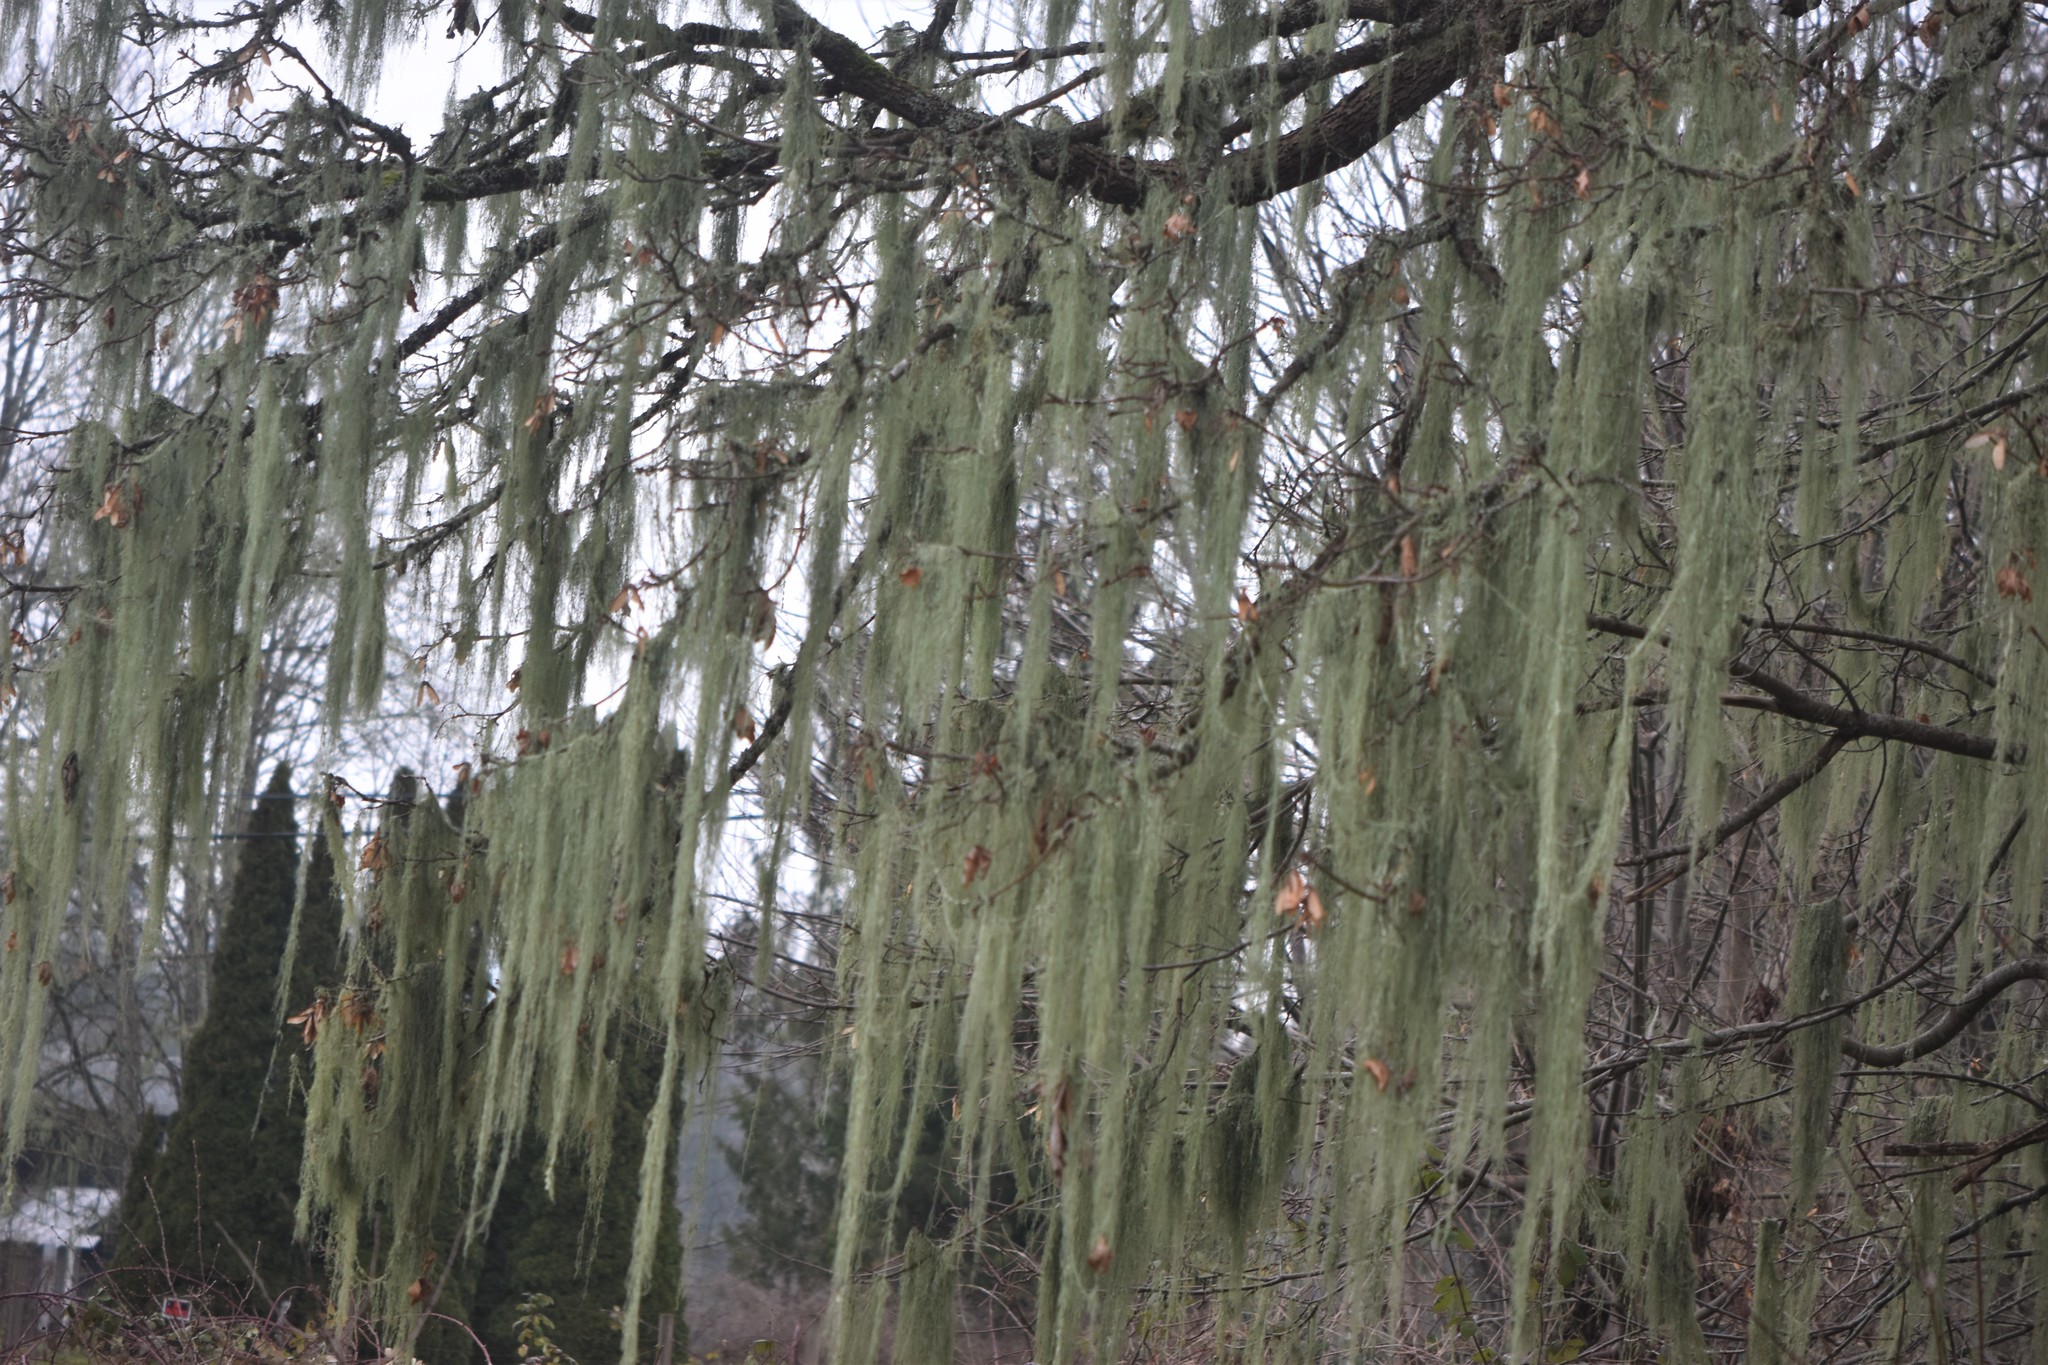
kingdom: Fungi
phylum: Ascomycota
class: Lecanoromycetes
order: Lecanorales
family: Ramalinaceae
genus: Ramalina
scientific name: Ramalina menziesii
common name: Lace lichen
